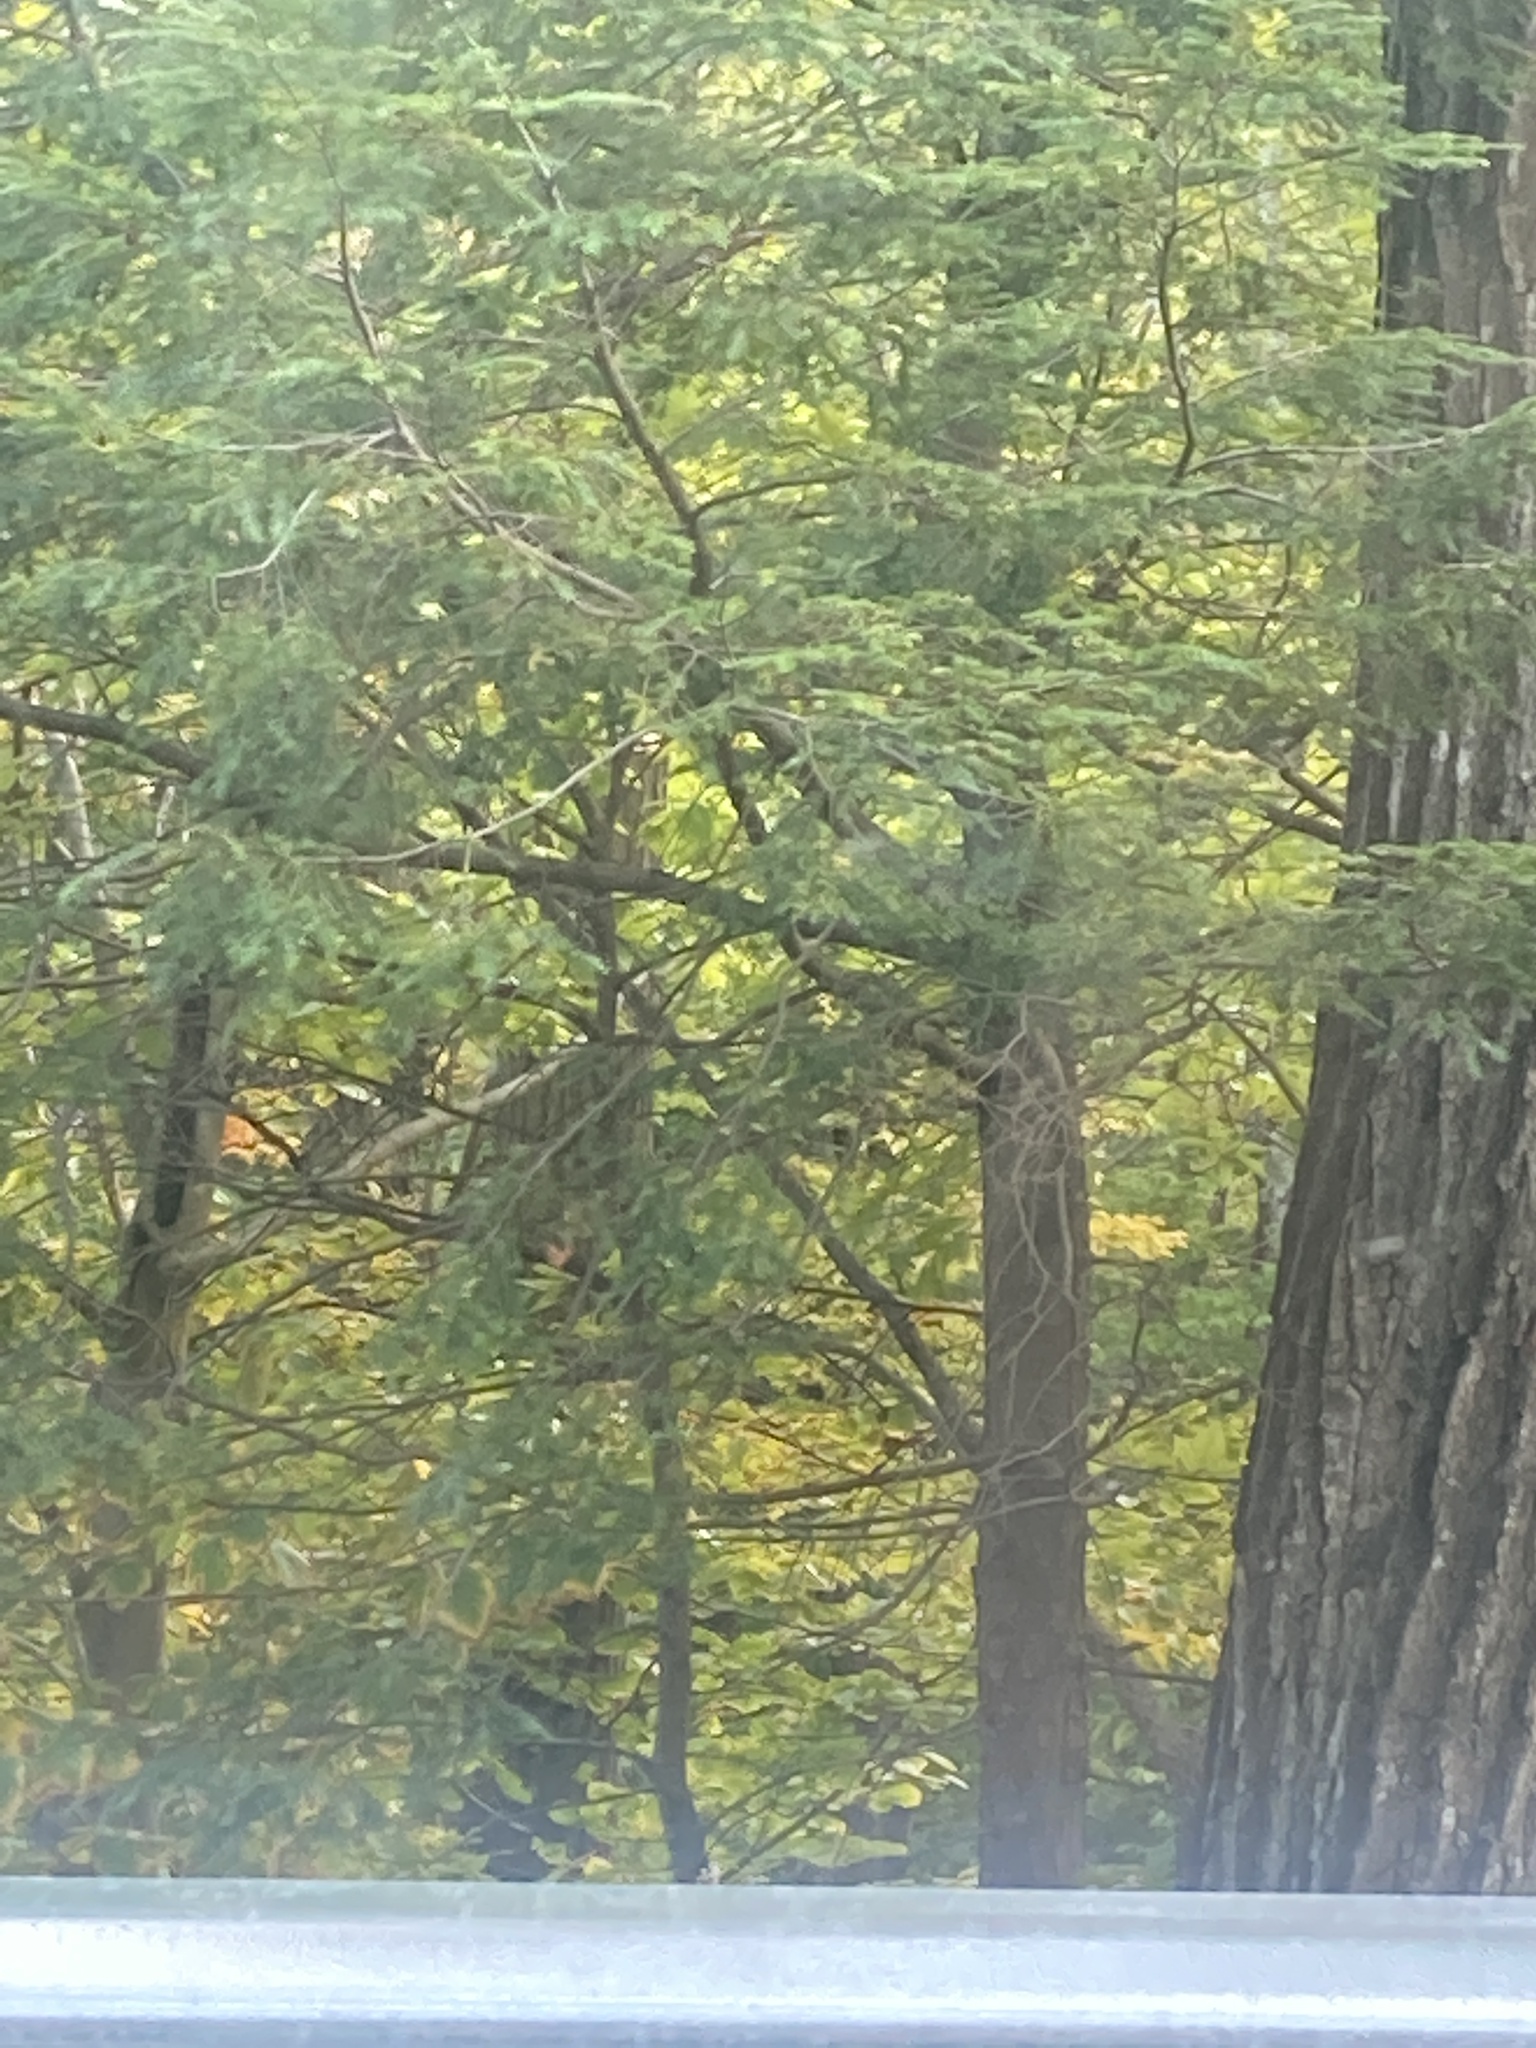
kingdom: Plantae
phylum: Tracheophyta
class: Pinopsida
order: Pinales
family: Pinaceae
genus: Tsuga
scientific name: Tsuga canadensis
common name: Eastern hemlock
